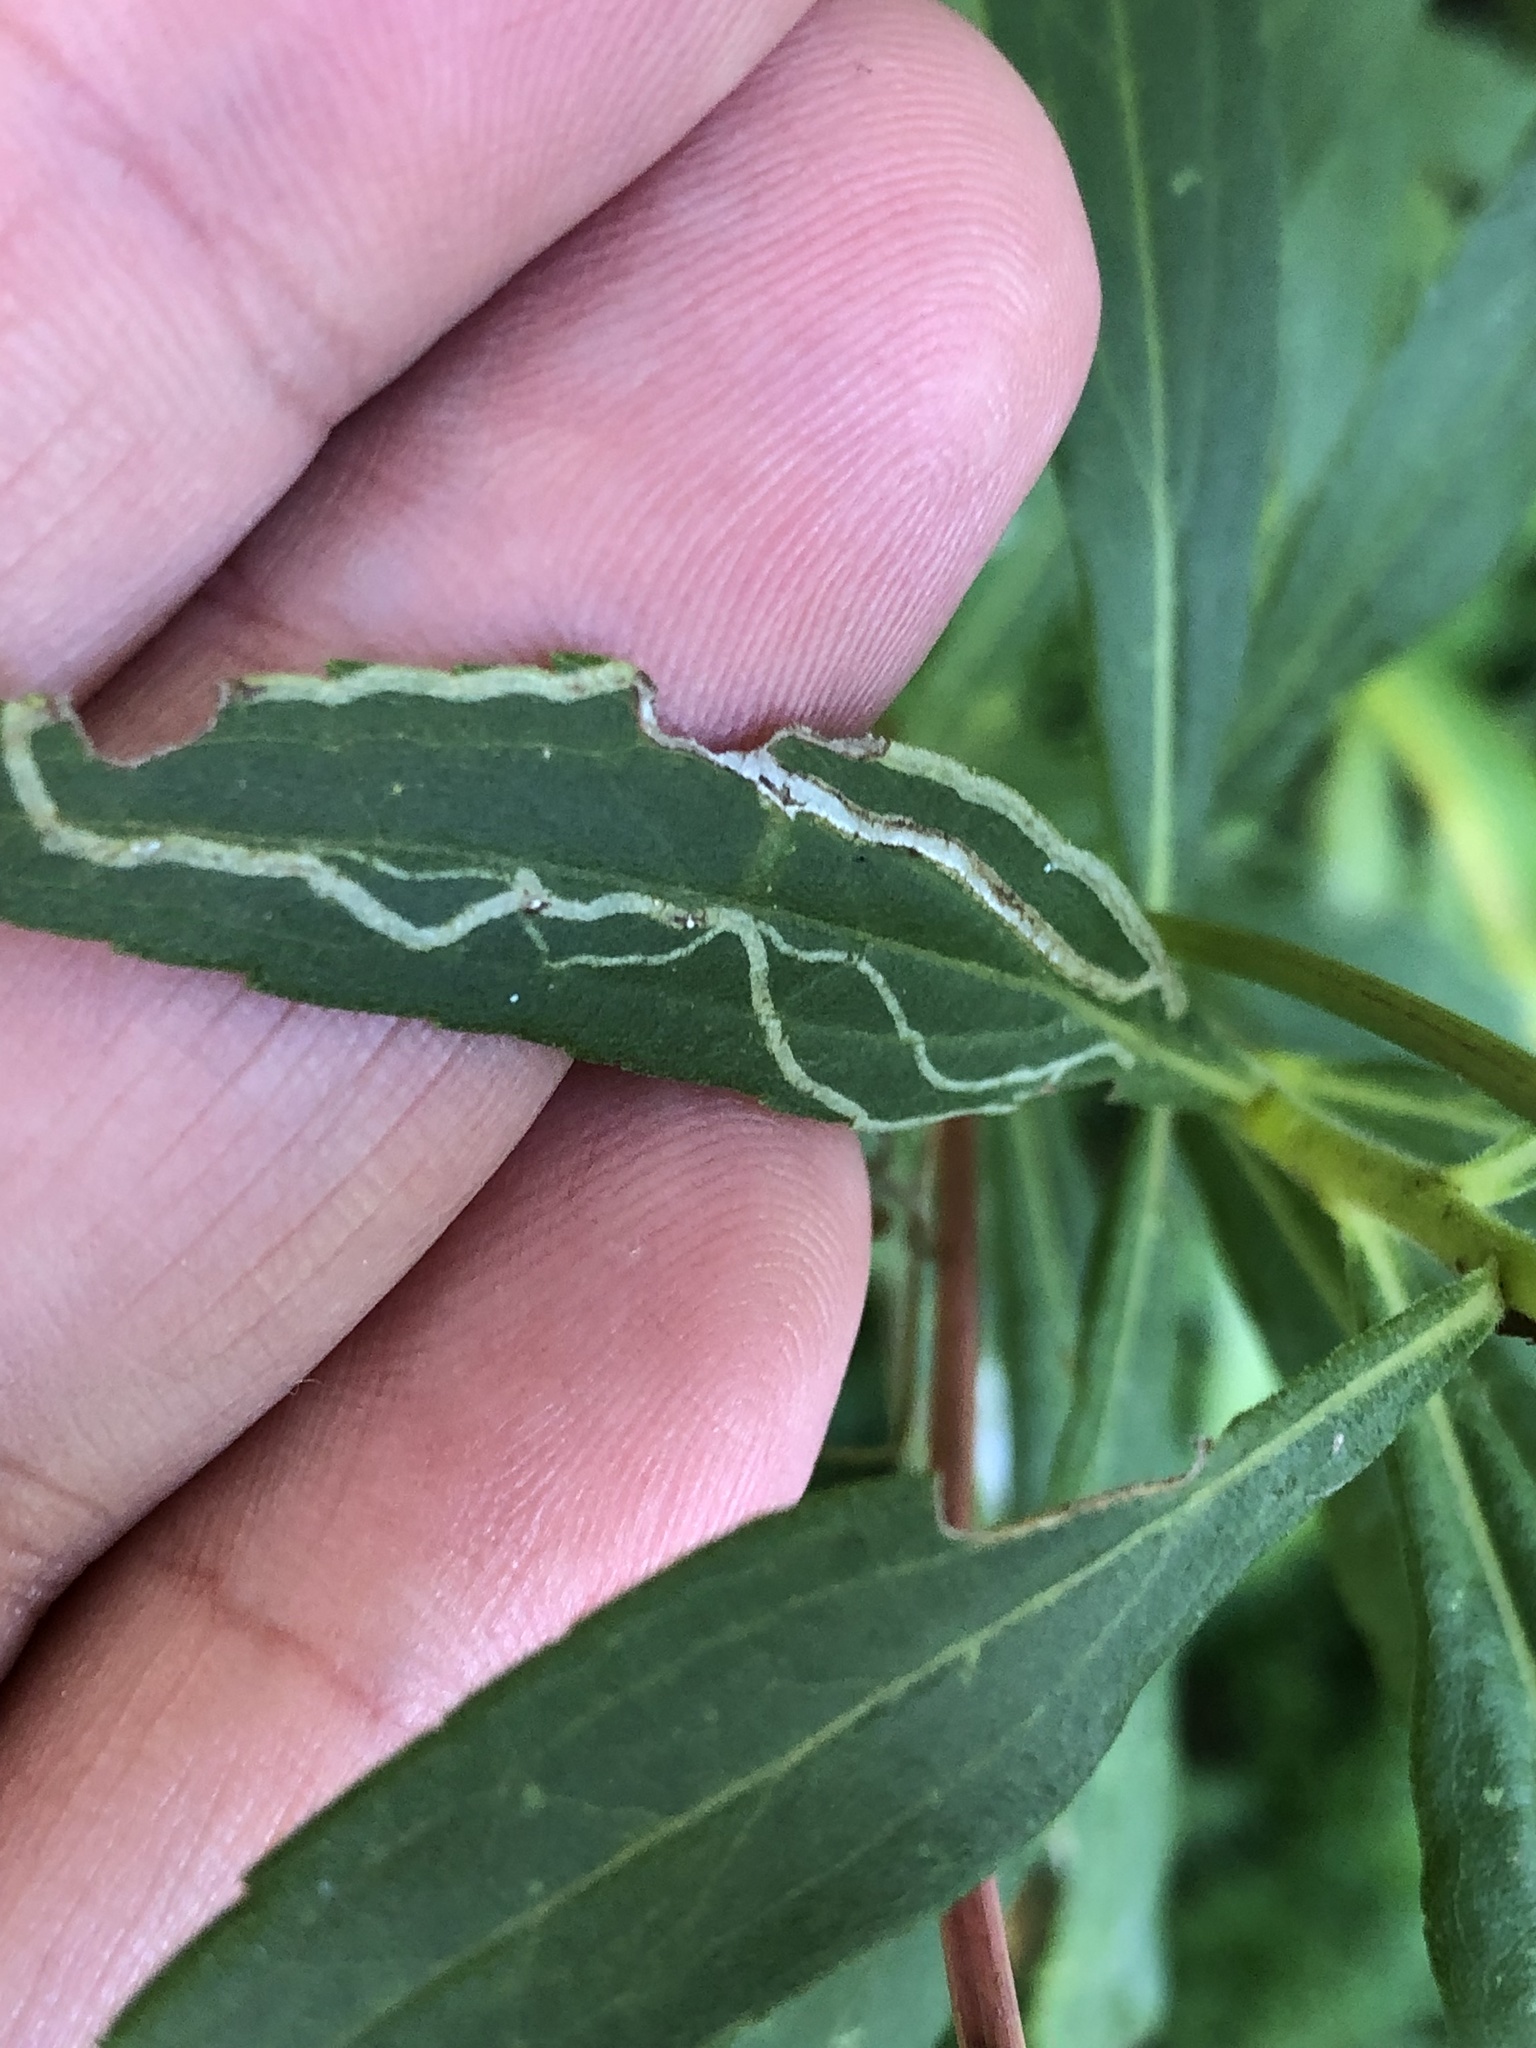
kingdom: Animalia
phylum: Arthropoda
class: Insecta
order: Diptera
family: Agromyzidae
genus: Ophiomyia
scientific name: Ophiomyia maura
